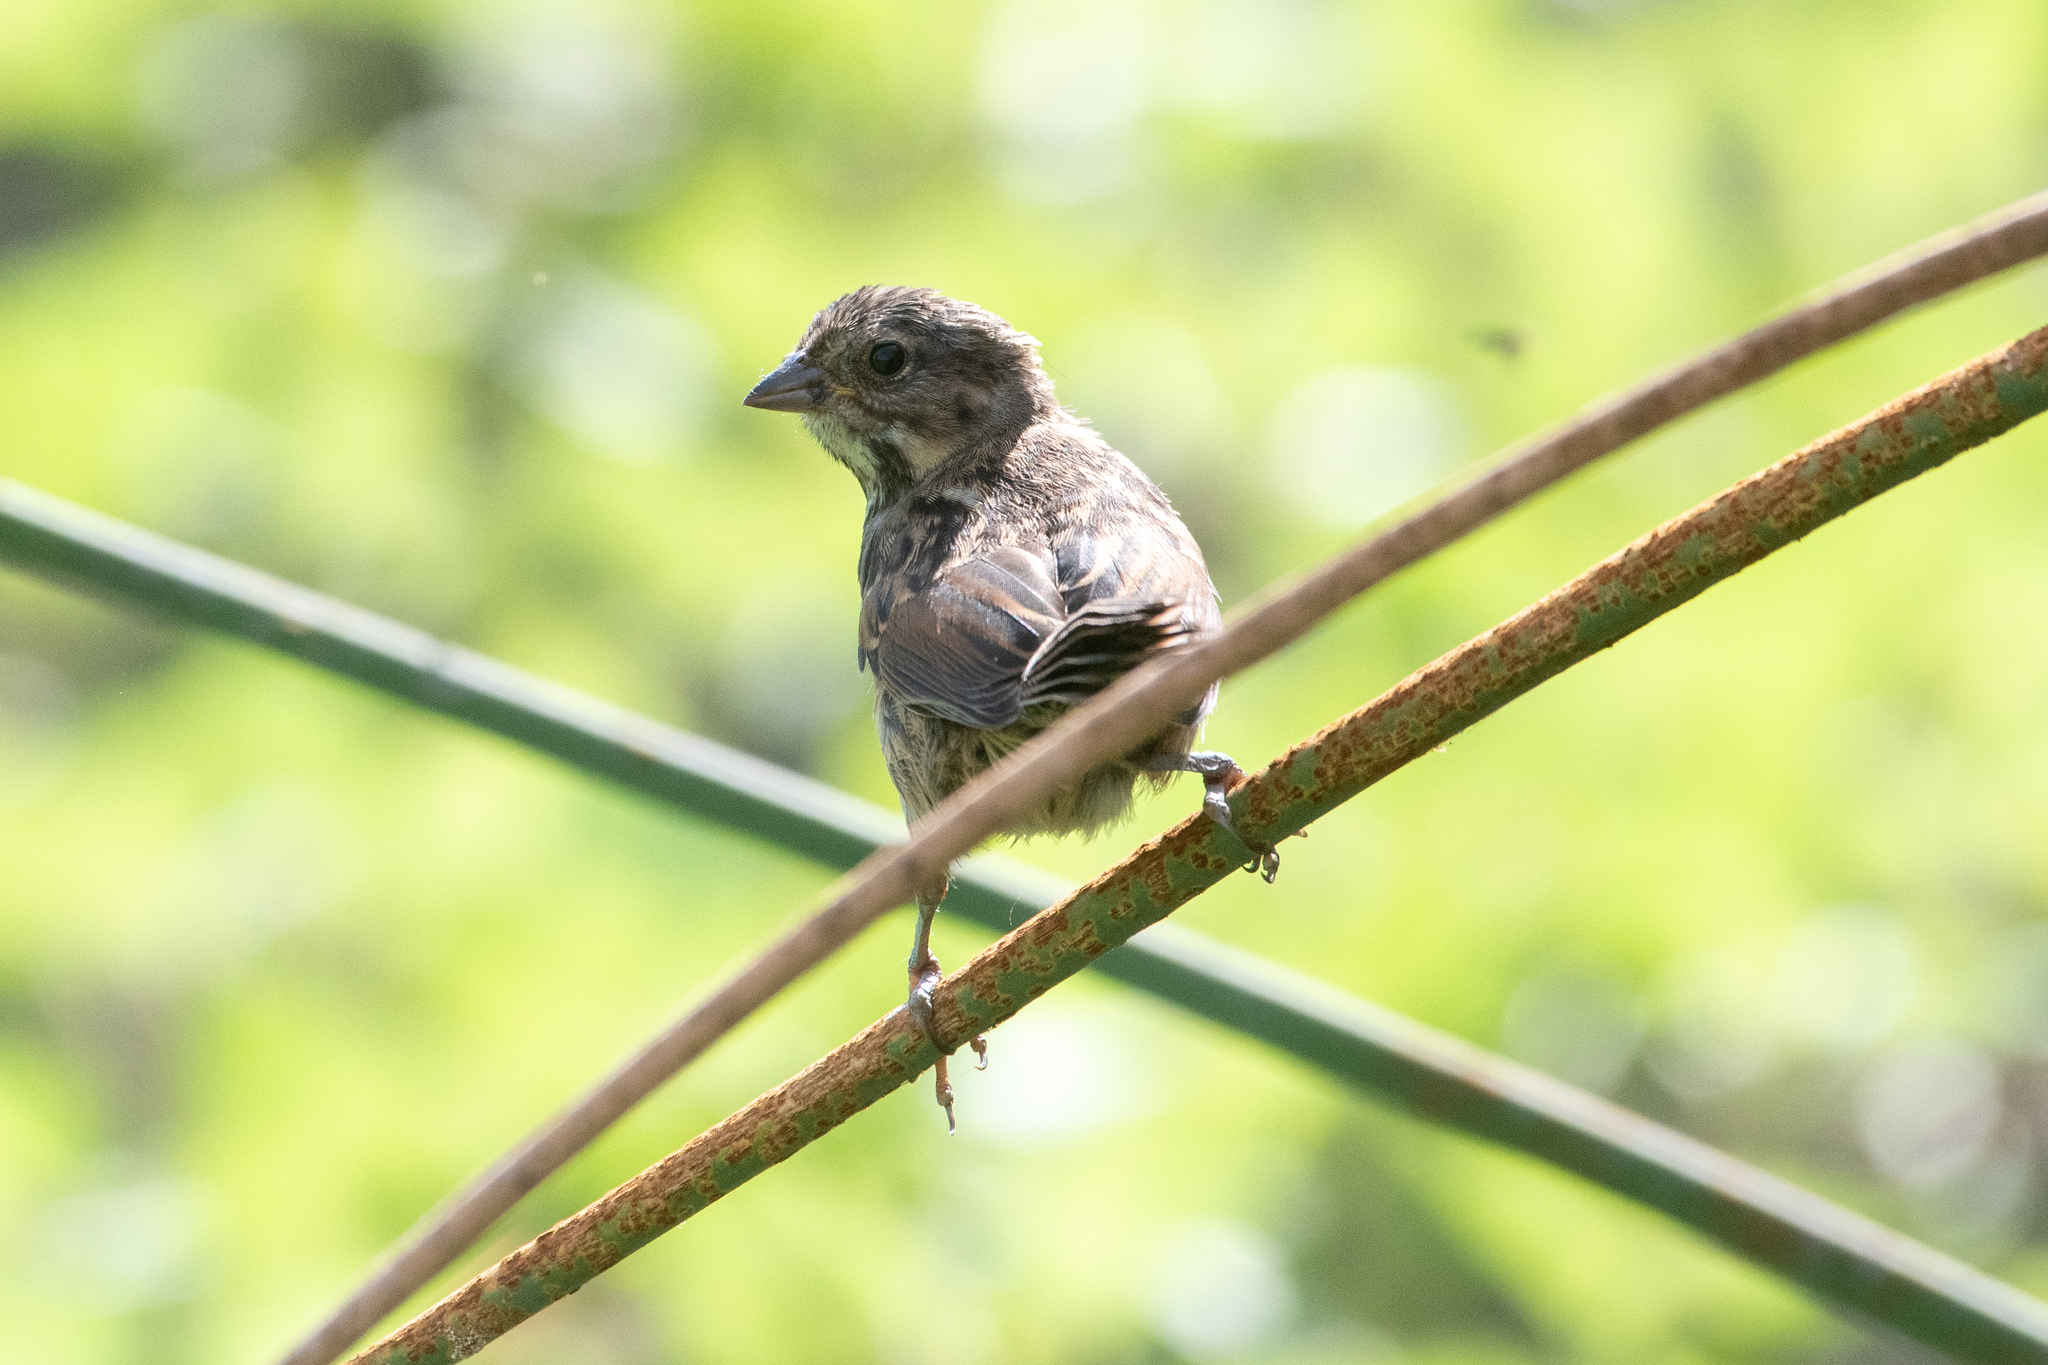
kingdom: Animalia
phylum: Chordata
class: Aves
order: Passeriformes
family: Passerellidae
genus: Melospiza
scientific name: Melospiza melodia
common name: Song sparrow
